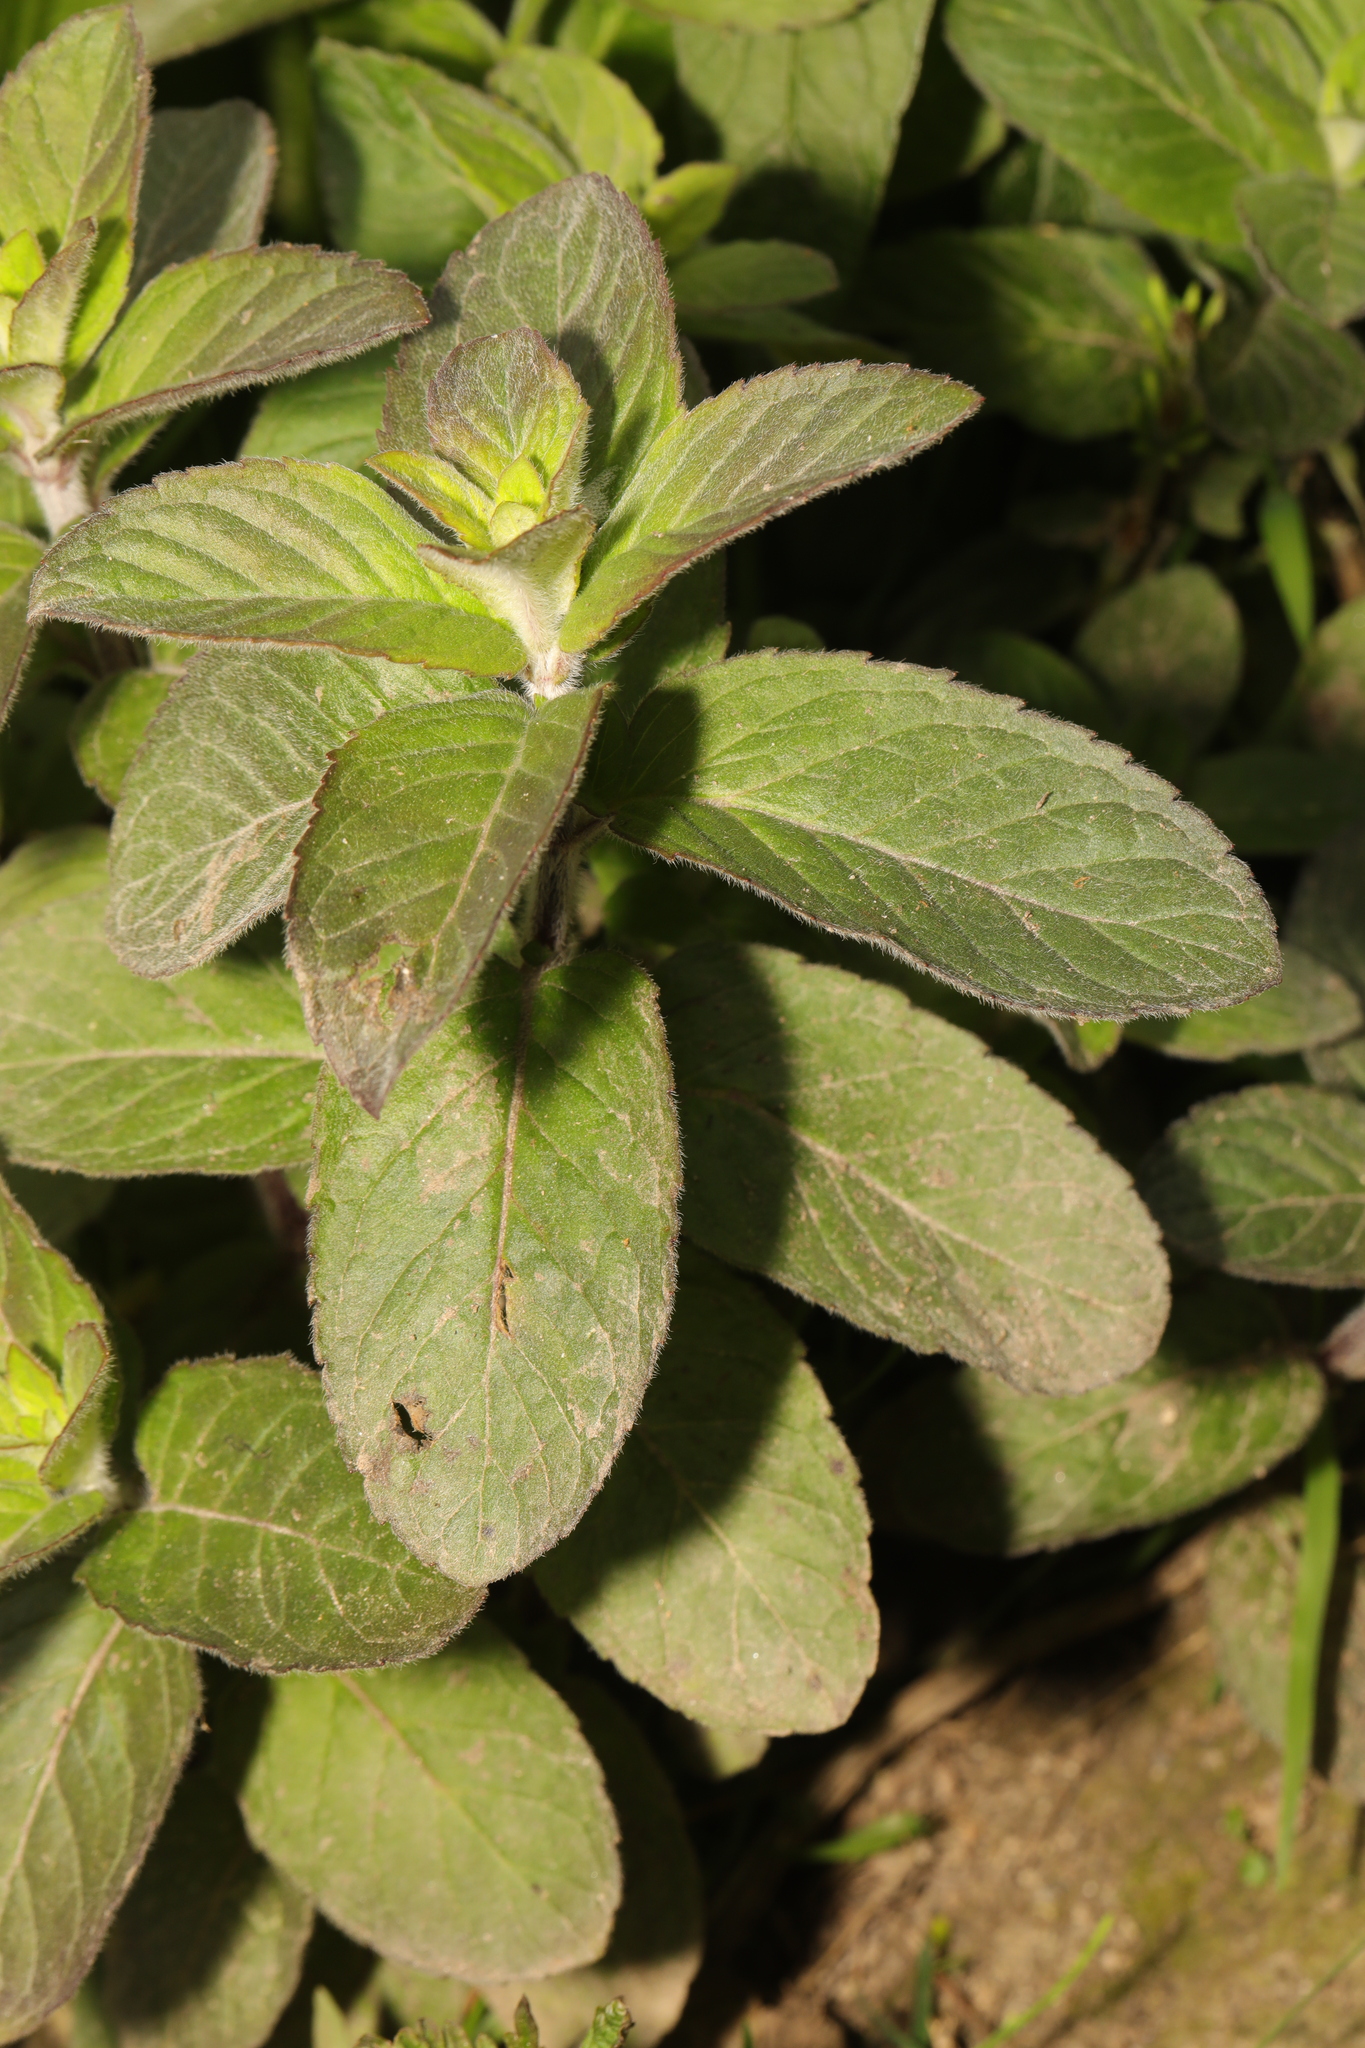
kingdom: Plantae
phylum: Tracheophyta
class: Magnoliopsida
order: Lamiales
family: Lamiaceae
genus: Mentha
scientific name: Mentha aquatica
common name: Water mint
